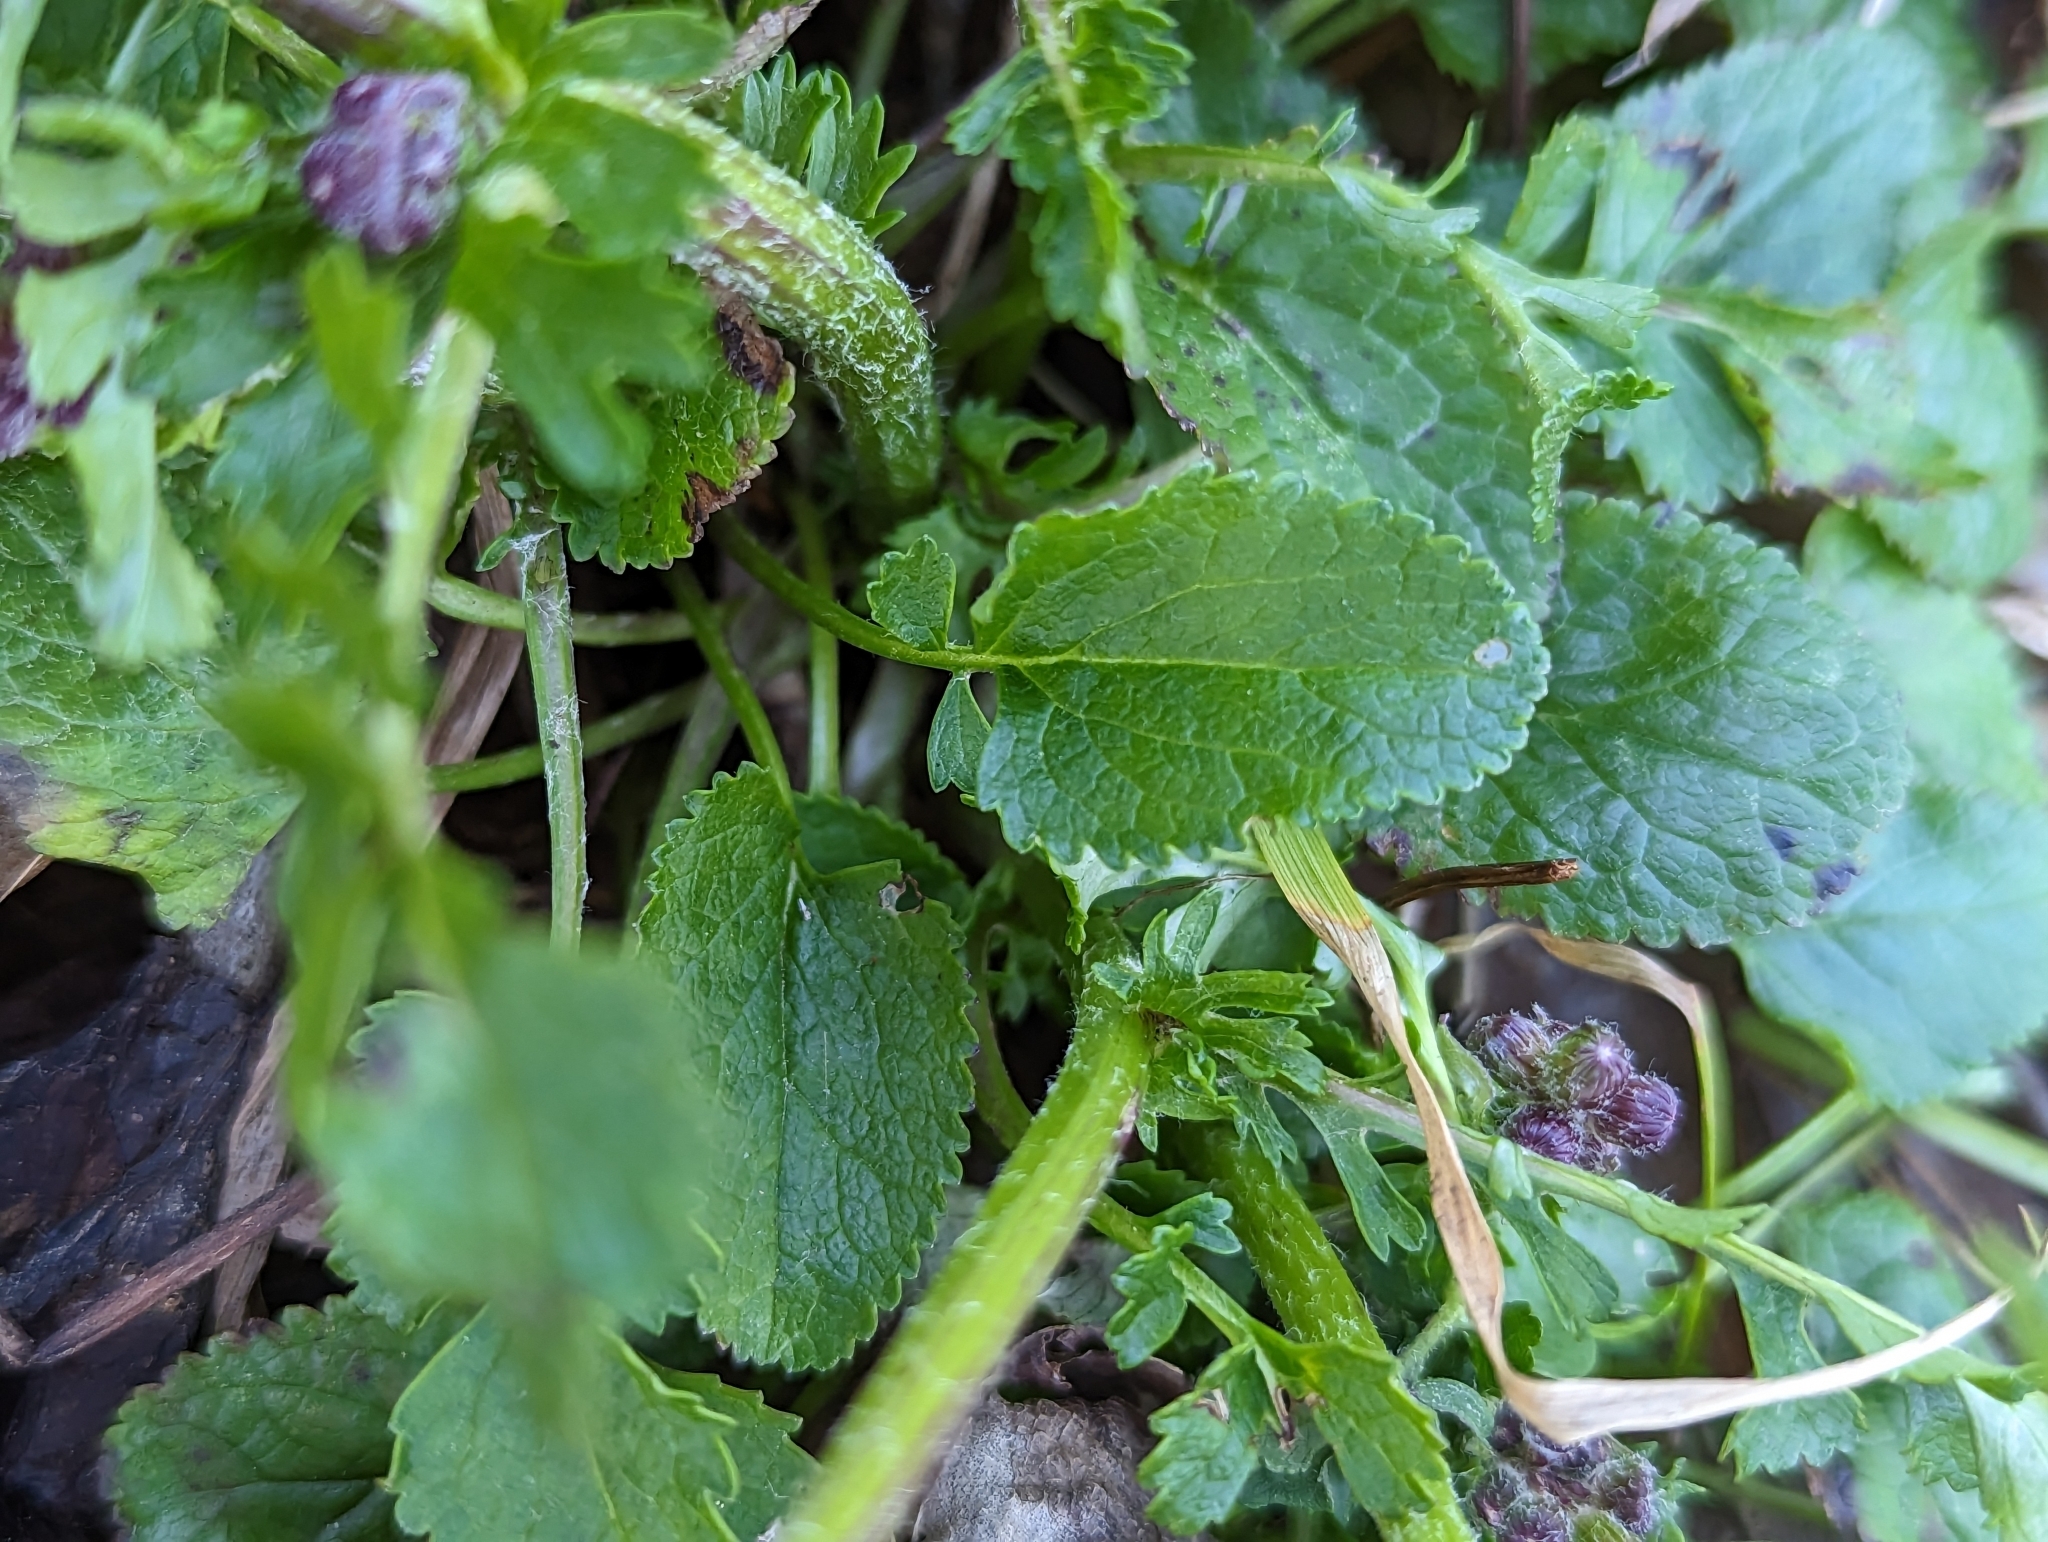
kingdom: Plantae
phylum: Tracheophyta
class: Magnoliopsida
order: Asterales
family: Asteraceae
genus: Packera
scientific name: Packera aurea
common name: Golden groundsel
